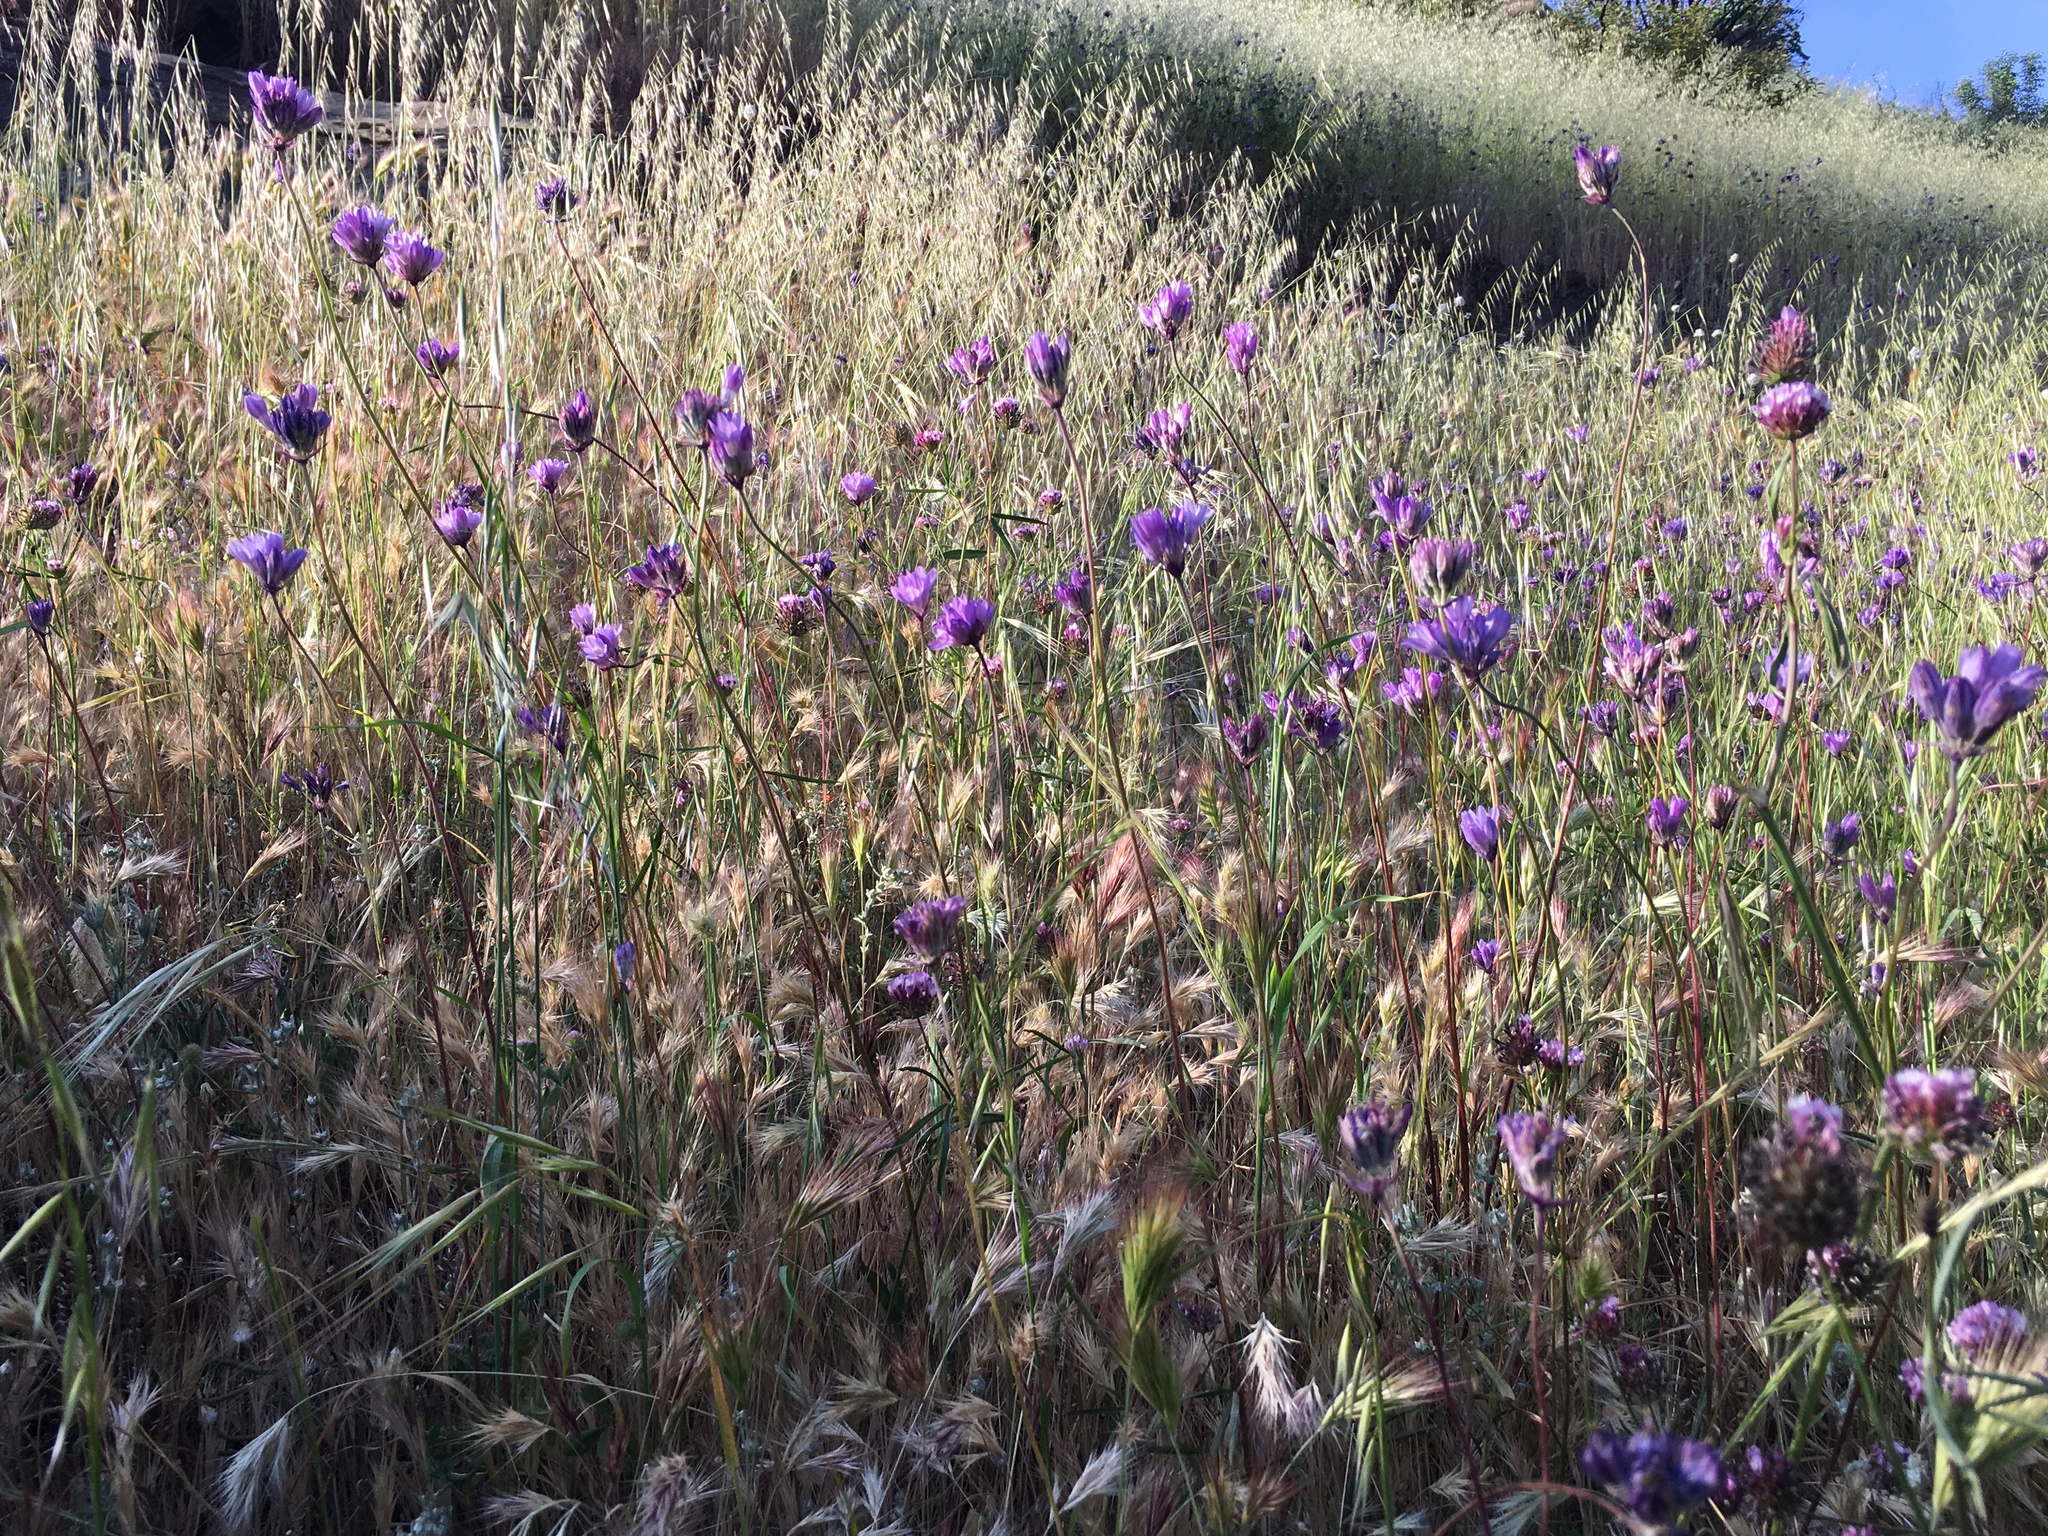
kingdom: Plantae
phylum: Tracheophyta
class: Liliopsida
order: Poales
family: Poaceae
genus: Bromus
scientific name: Bromus diandrus
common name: Ripgut brome
